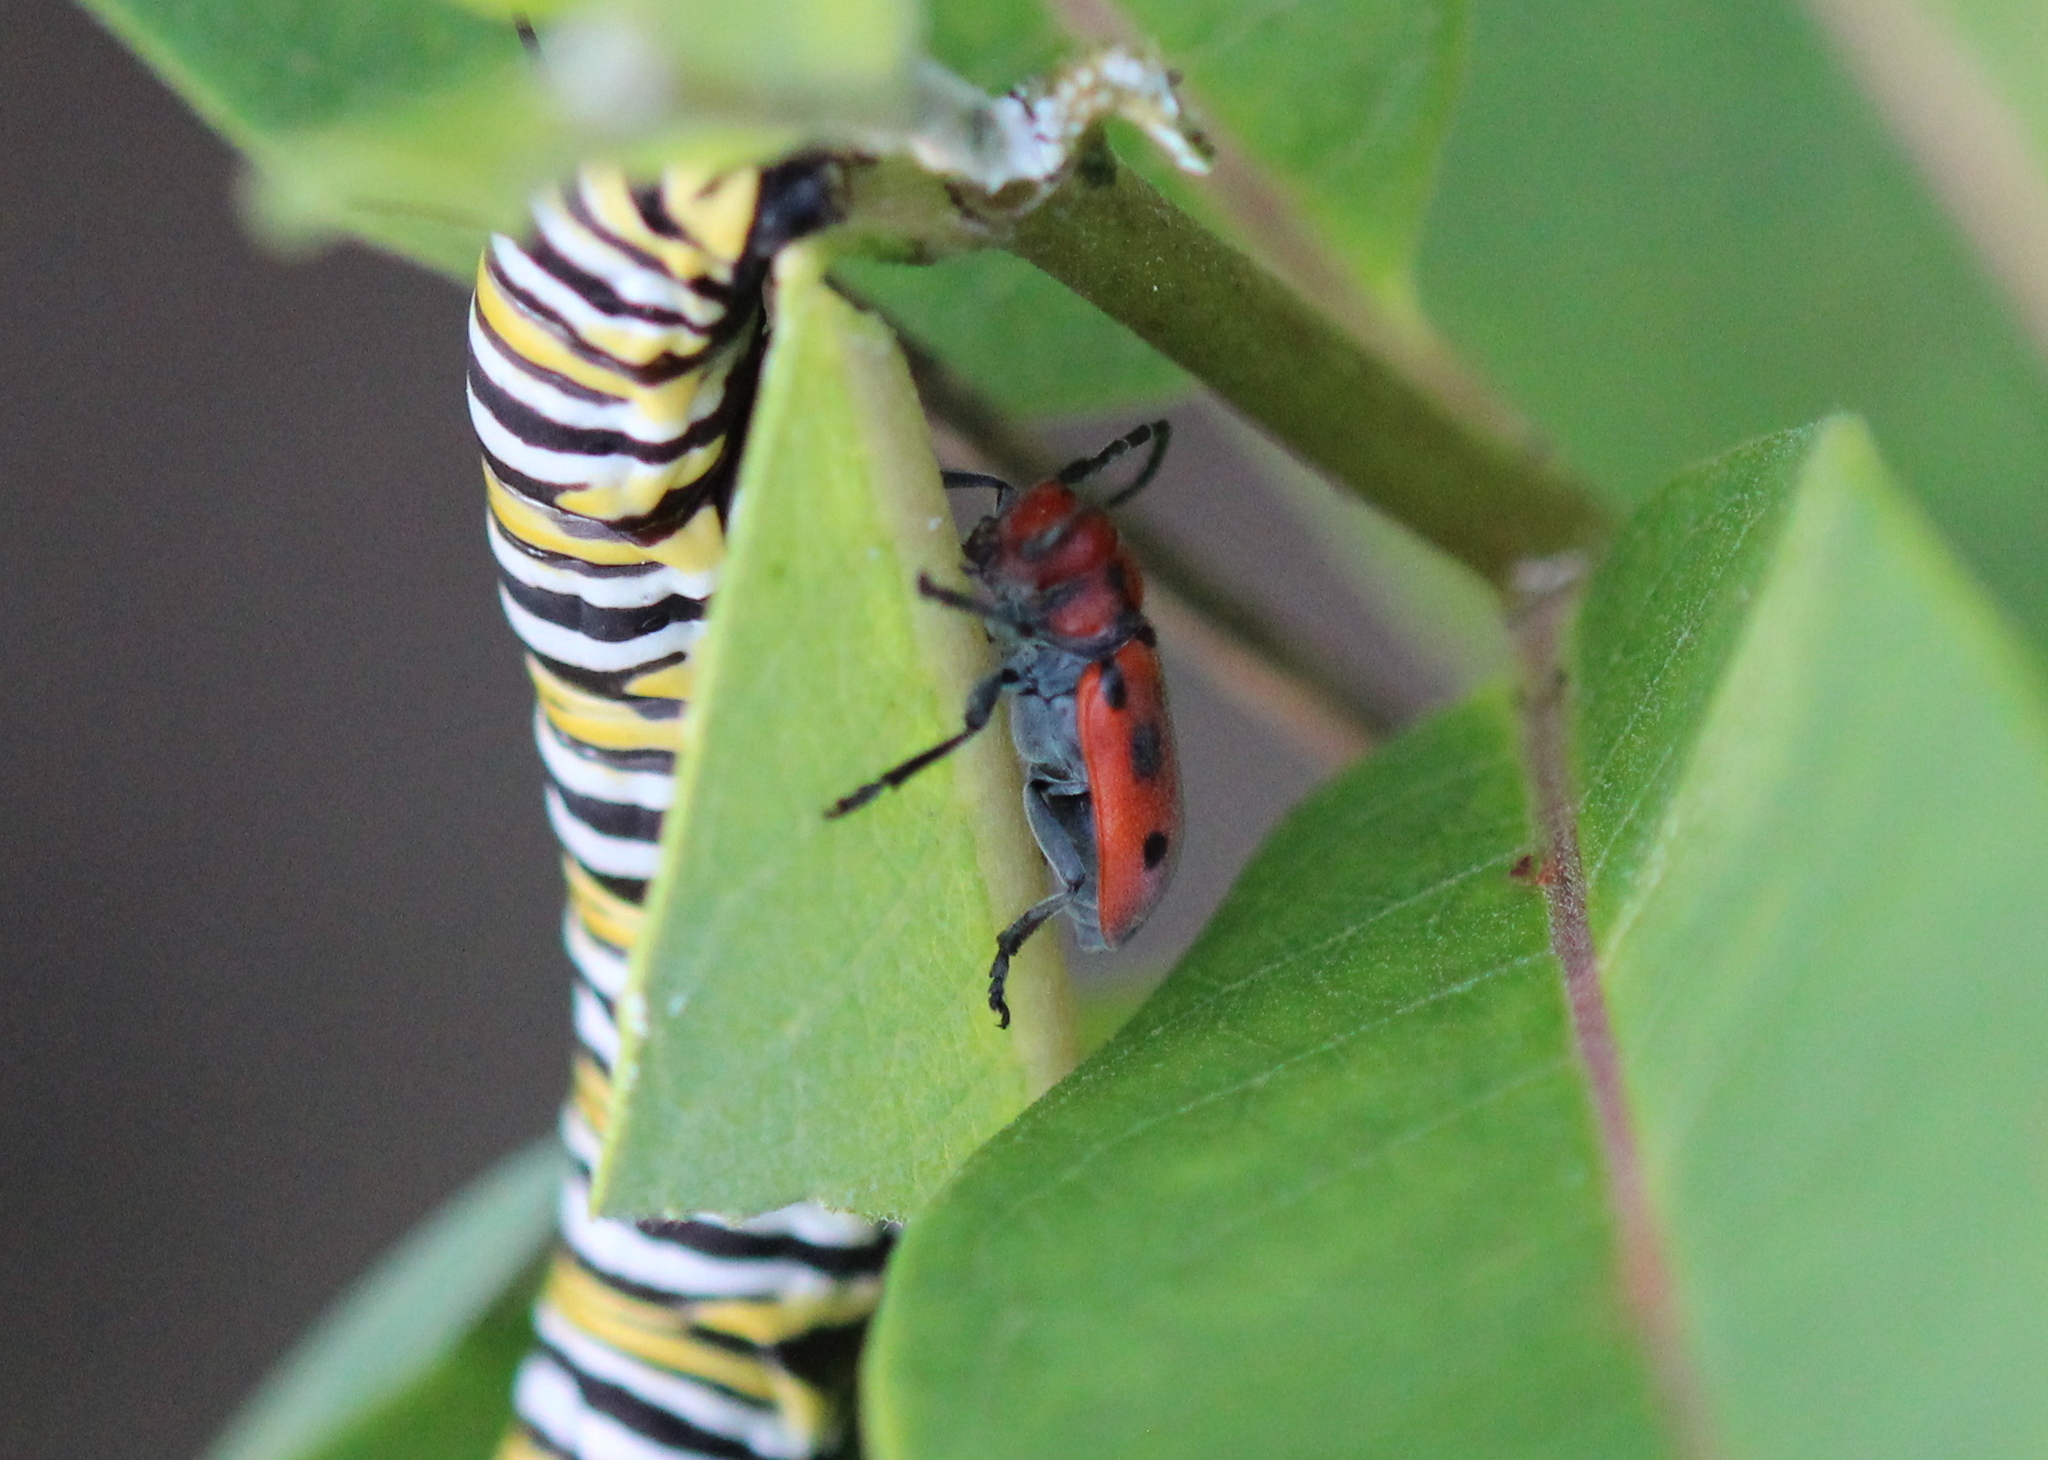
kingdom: Animalia
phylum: Arthropoda
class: Insecta
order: Coleoptera
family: Cerambycidae
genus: Tetraopes
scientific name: Tetraopes tetrophthalmus
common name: Red milkweed beetle
